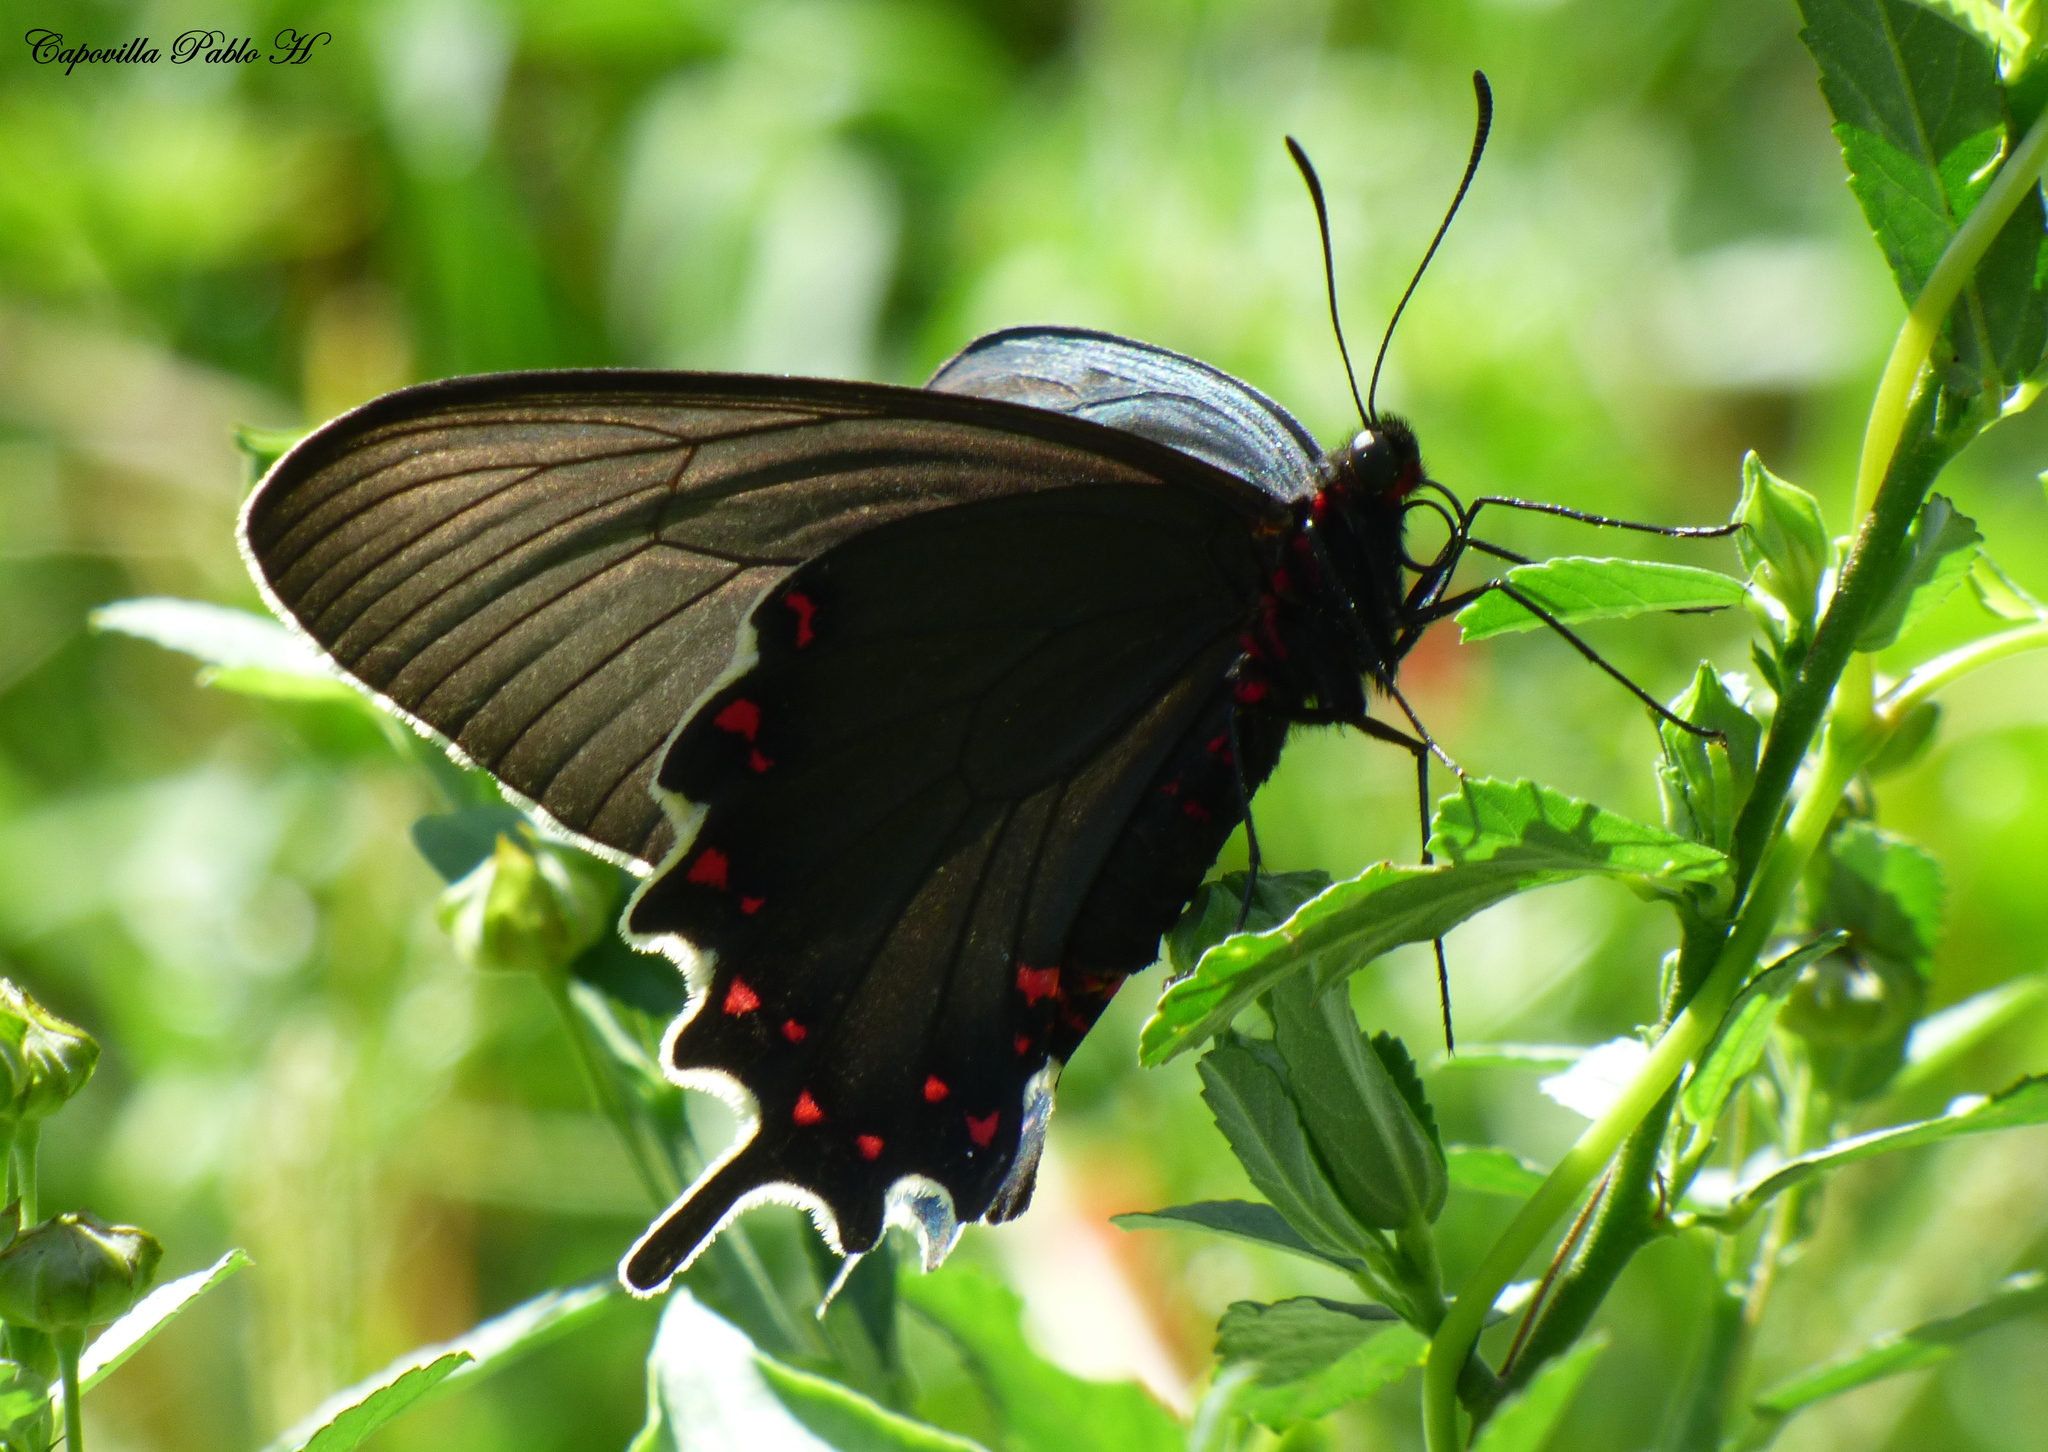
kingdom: Animalia
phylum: Arthropoda
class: Insecta
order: Lepidoptera
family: Papilionidae
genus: Parides
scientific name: Parides bunichus
